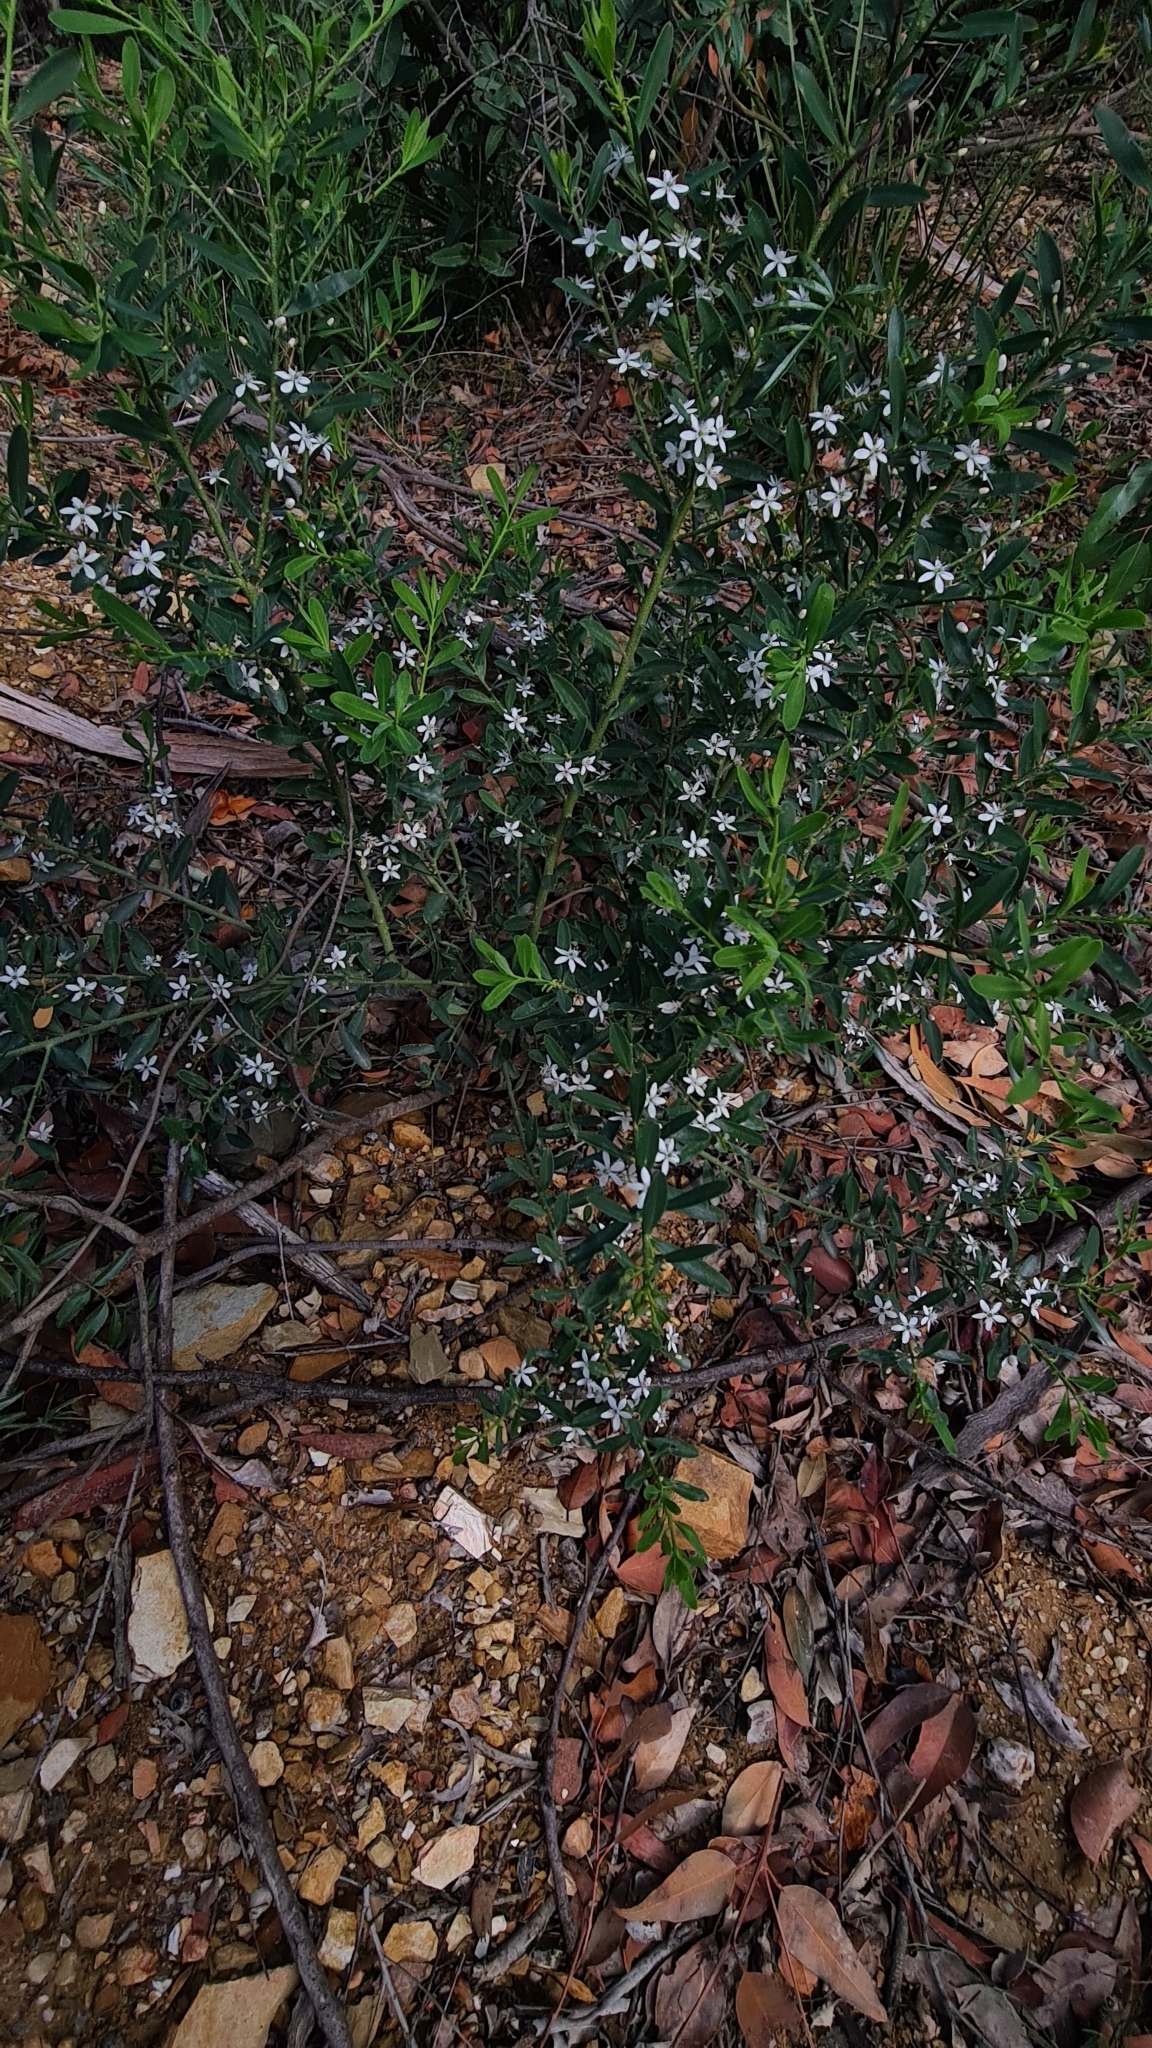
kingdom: Plantae
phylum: Tracheophyta
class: Magnoliopsida
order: Sapindales
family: Rutaceae
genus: Philotheca
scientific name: Philotheca trachyphylla
